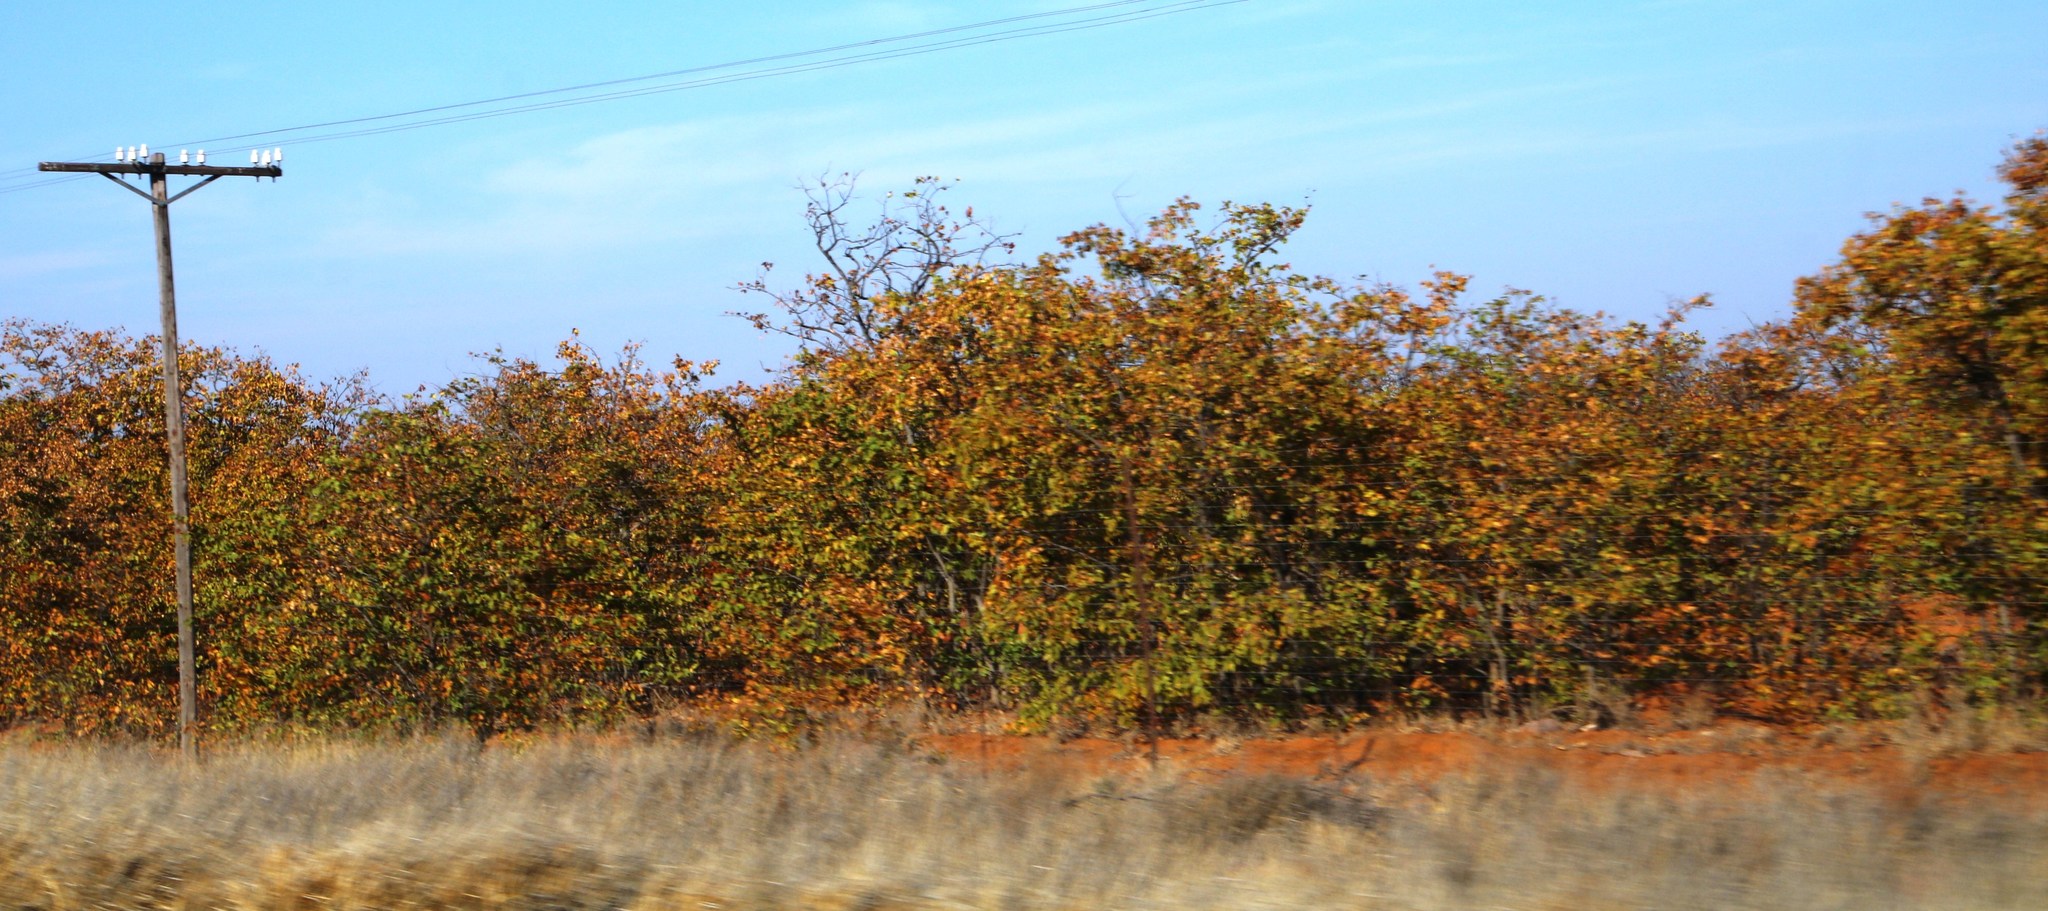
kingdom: Plantae
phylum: Tracheophyta
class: Magnoliopsida
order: Fabales
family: Fabaceae
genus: Colophospermum
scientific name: Colophospermum mopane
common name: Mopane
